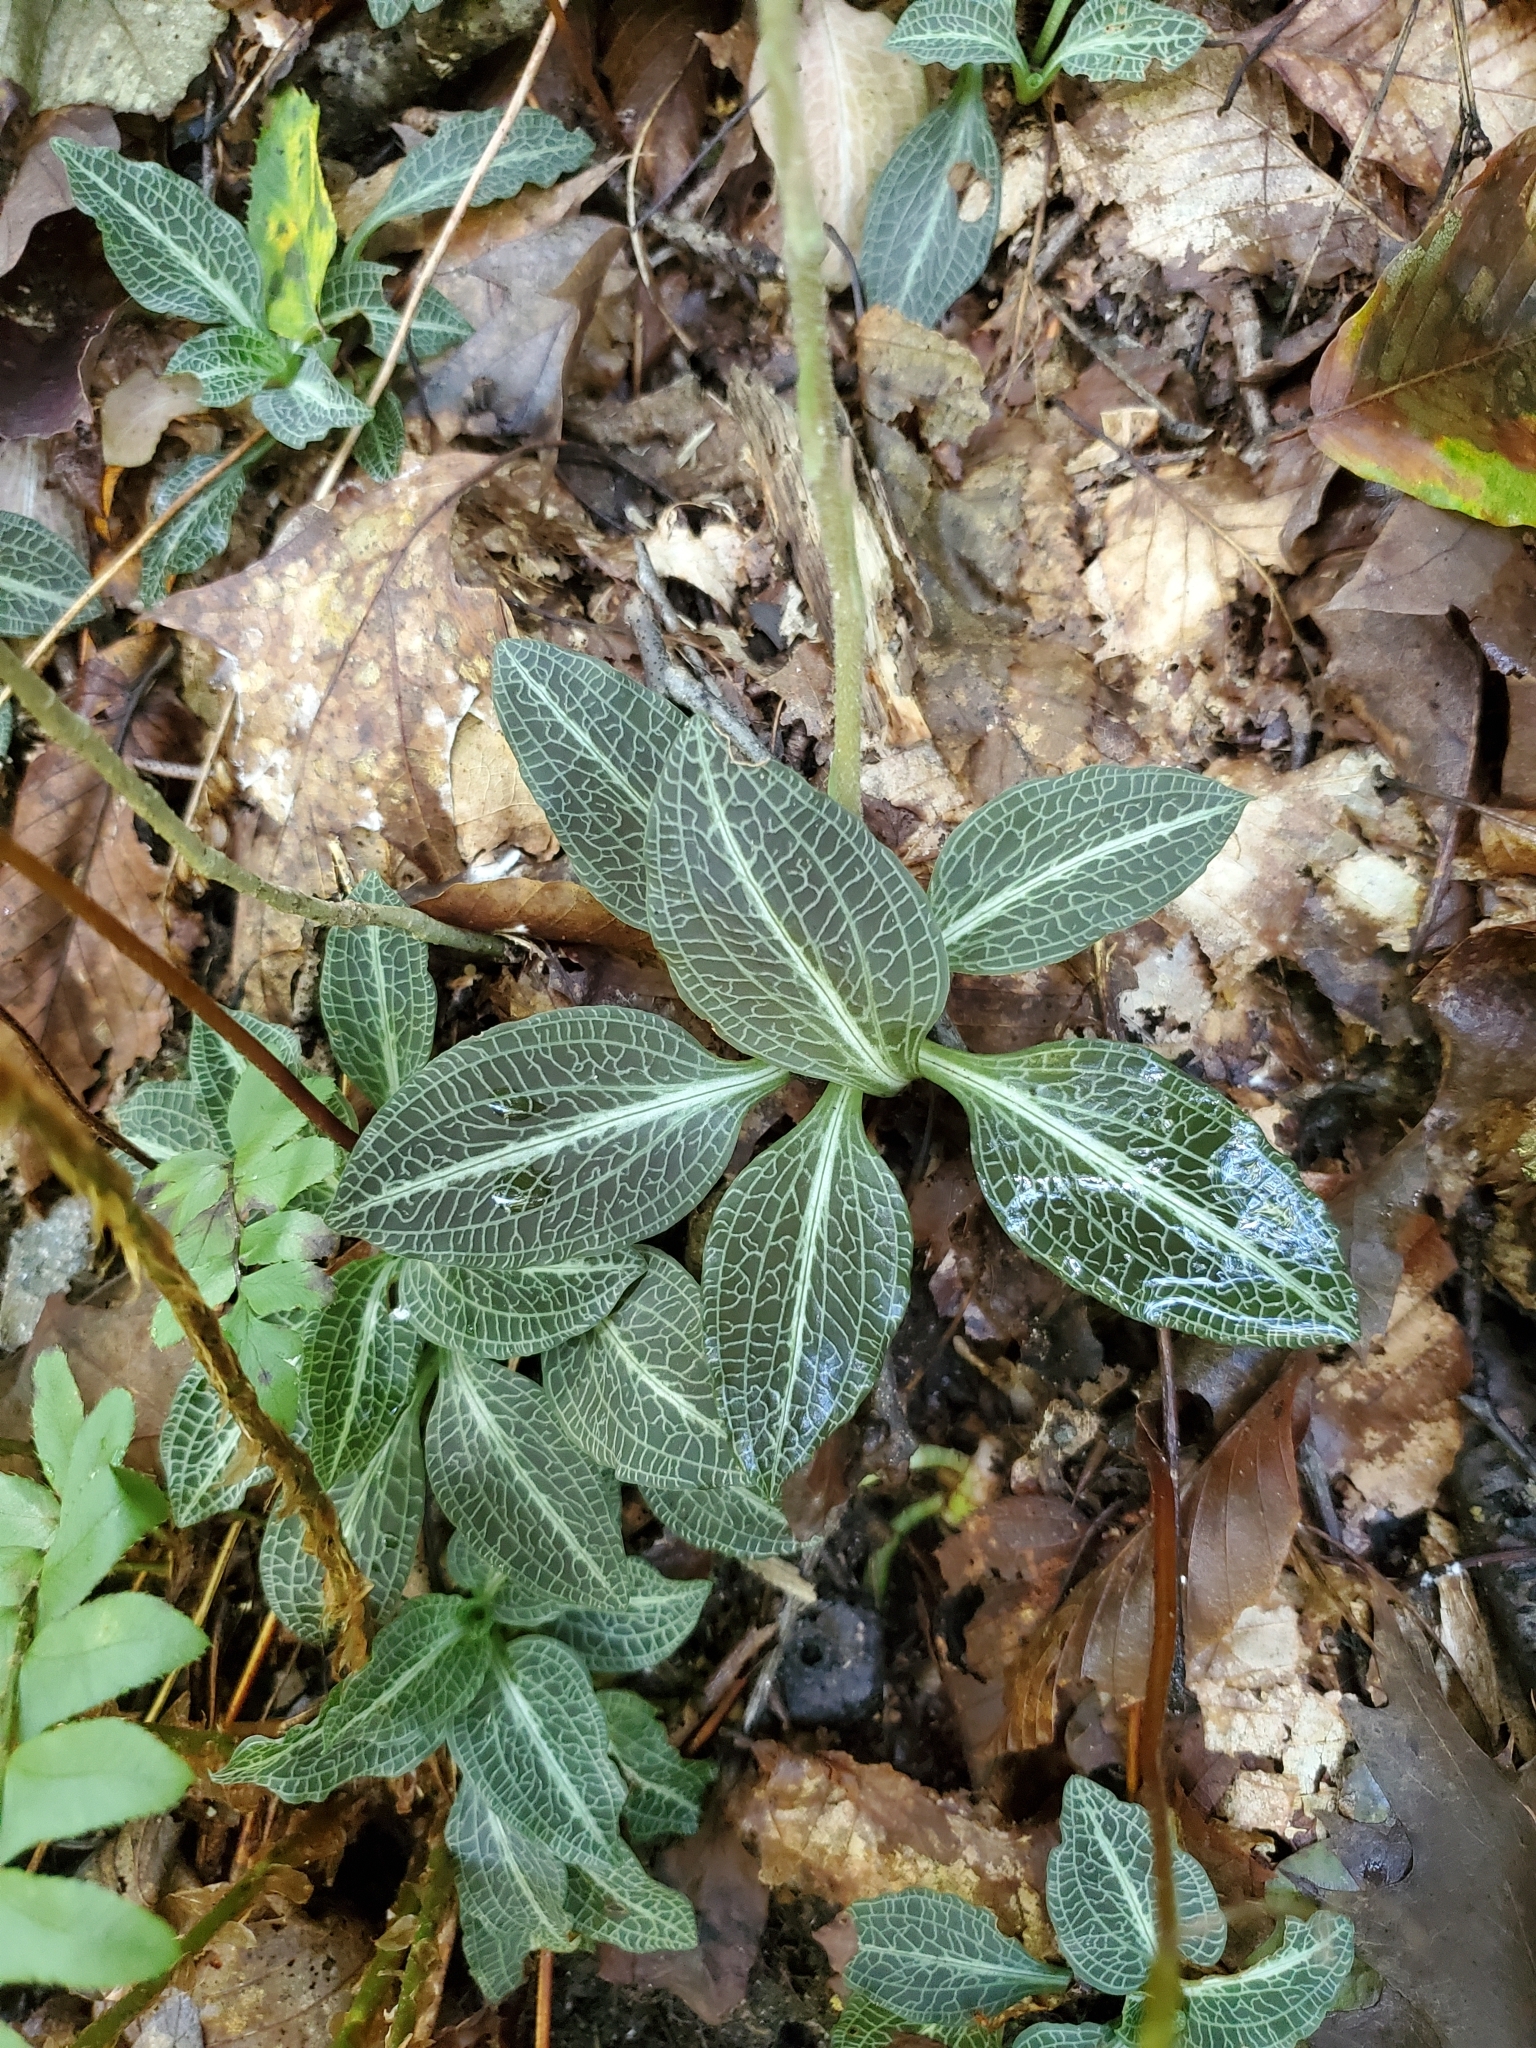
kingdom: Plantae
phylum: Tracheophyta
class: Liliopsida
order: Asparagales
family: Orchidaceae
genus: Goodyera
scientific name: Goodyera pubescens
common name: Downy rattlesnake-plantain
